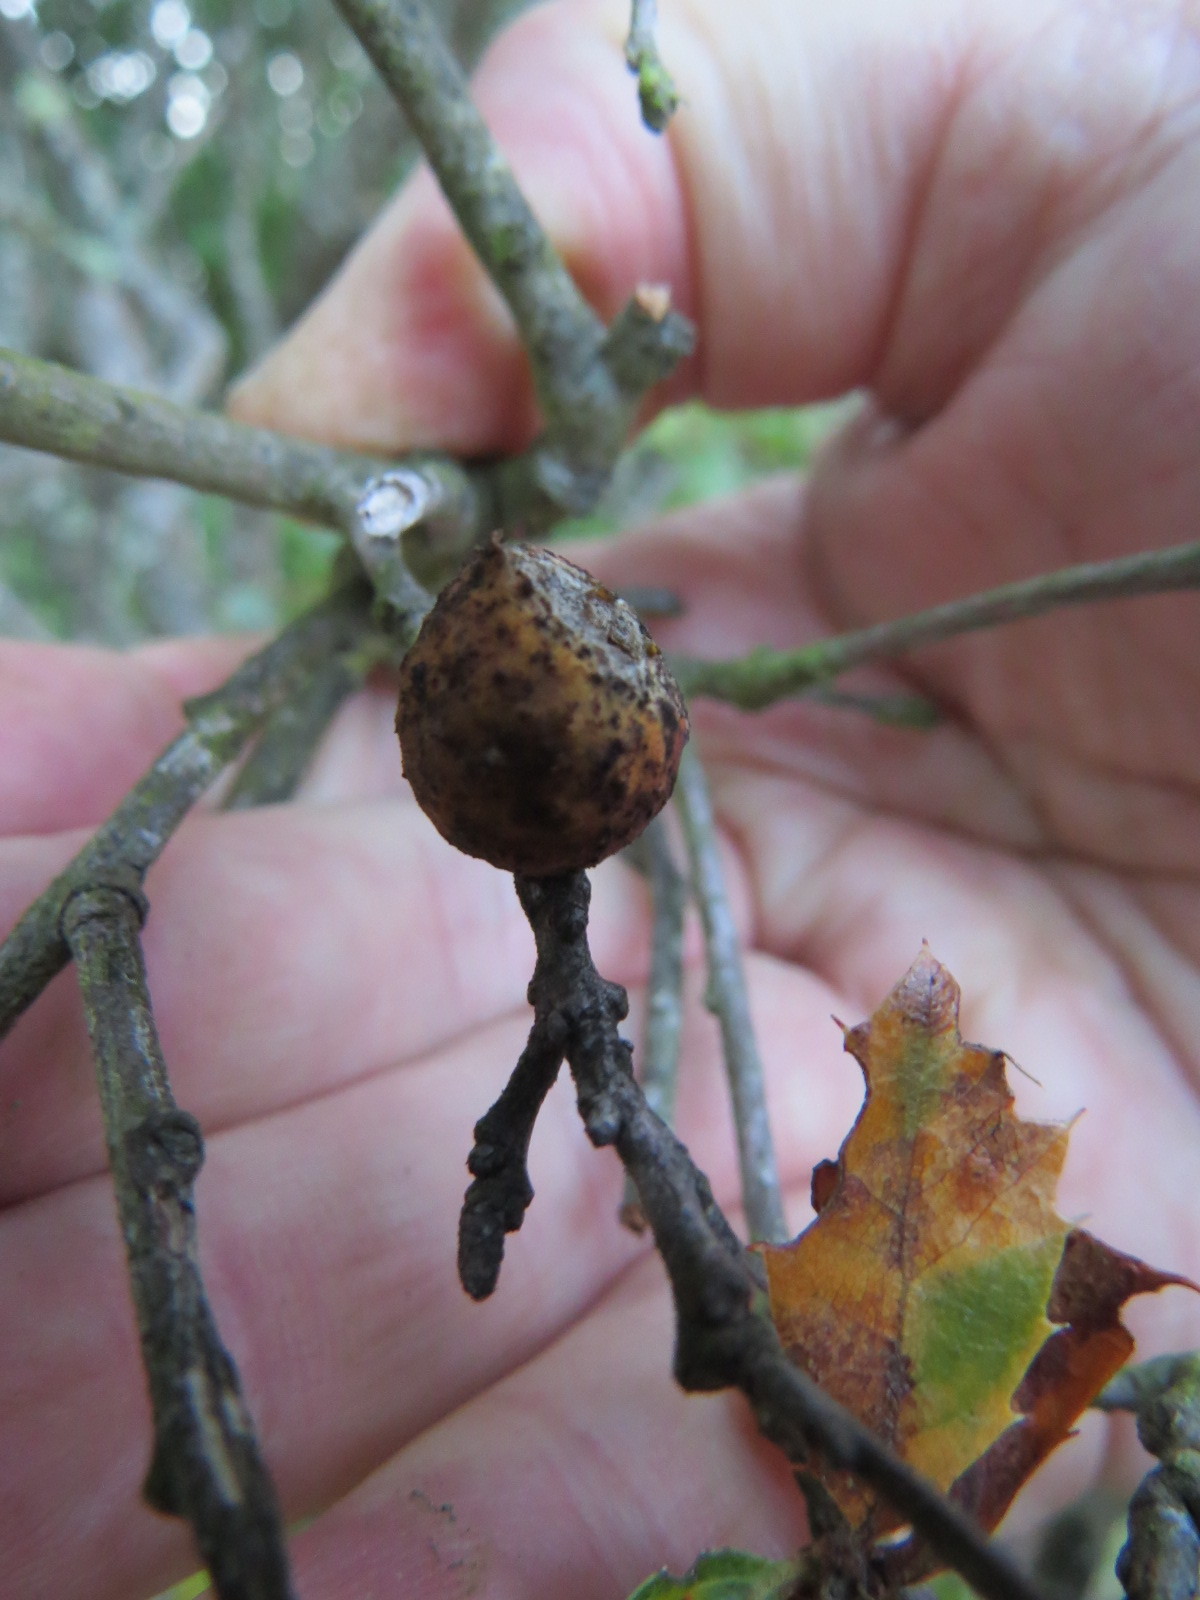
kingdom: Animalia
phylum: Arthropoda
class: Insecta
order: Hymenoptera
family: Cynipidae
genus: Burnettweldia
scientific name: Burnettweldia
